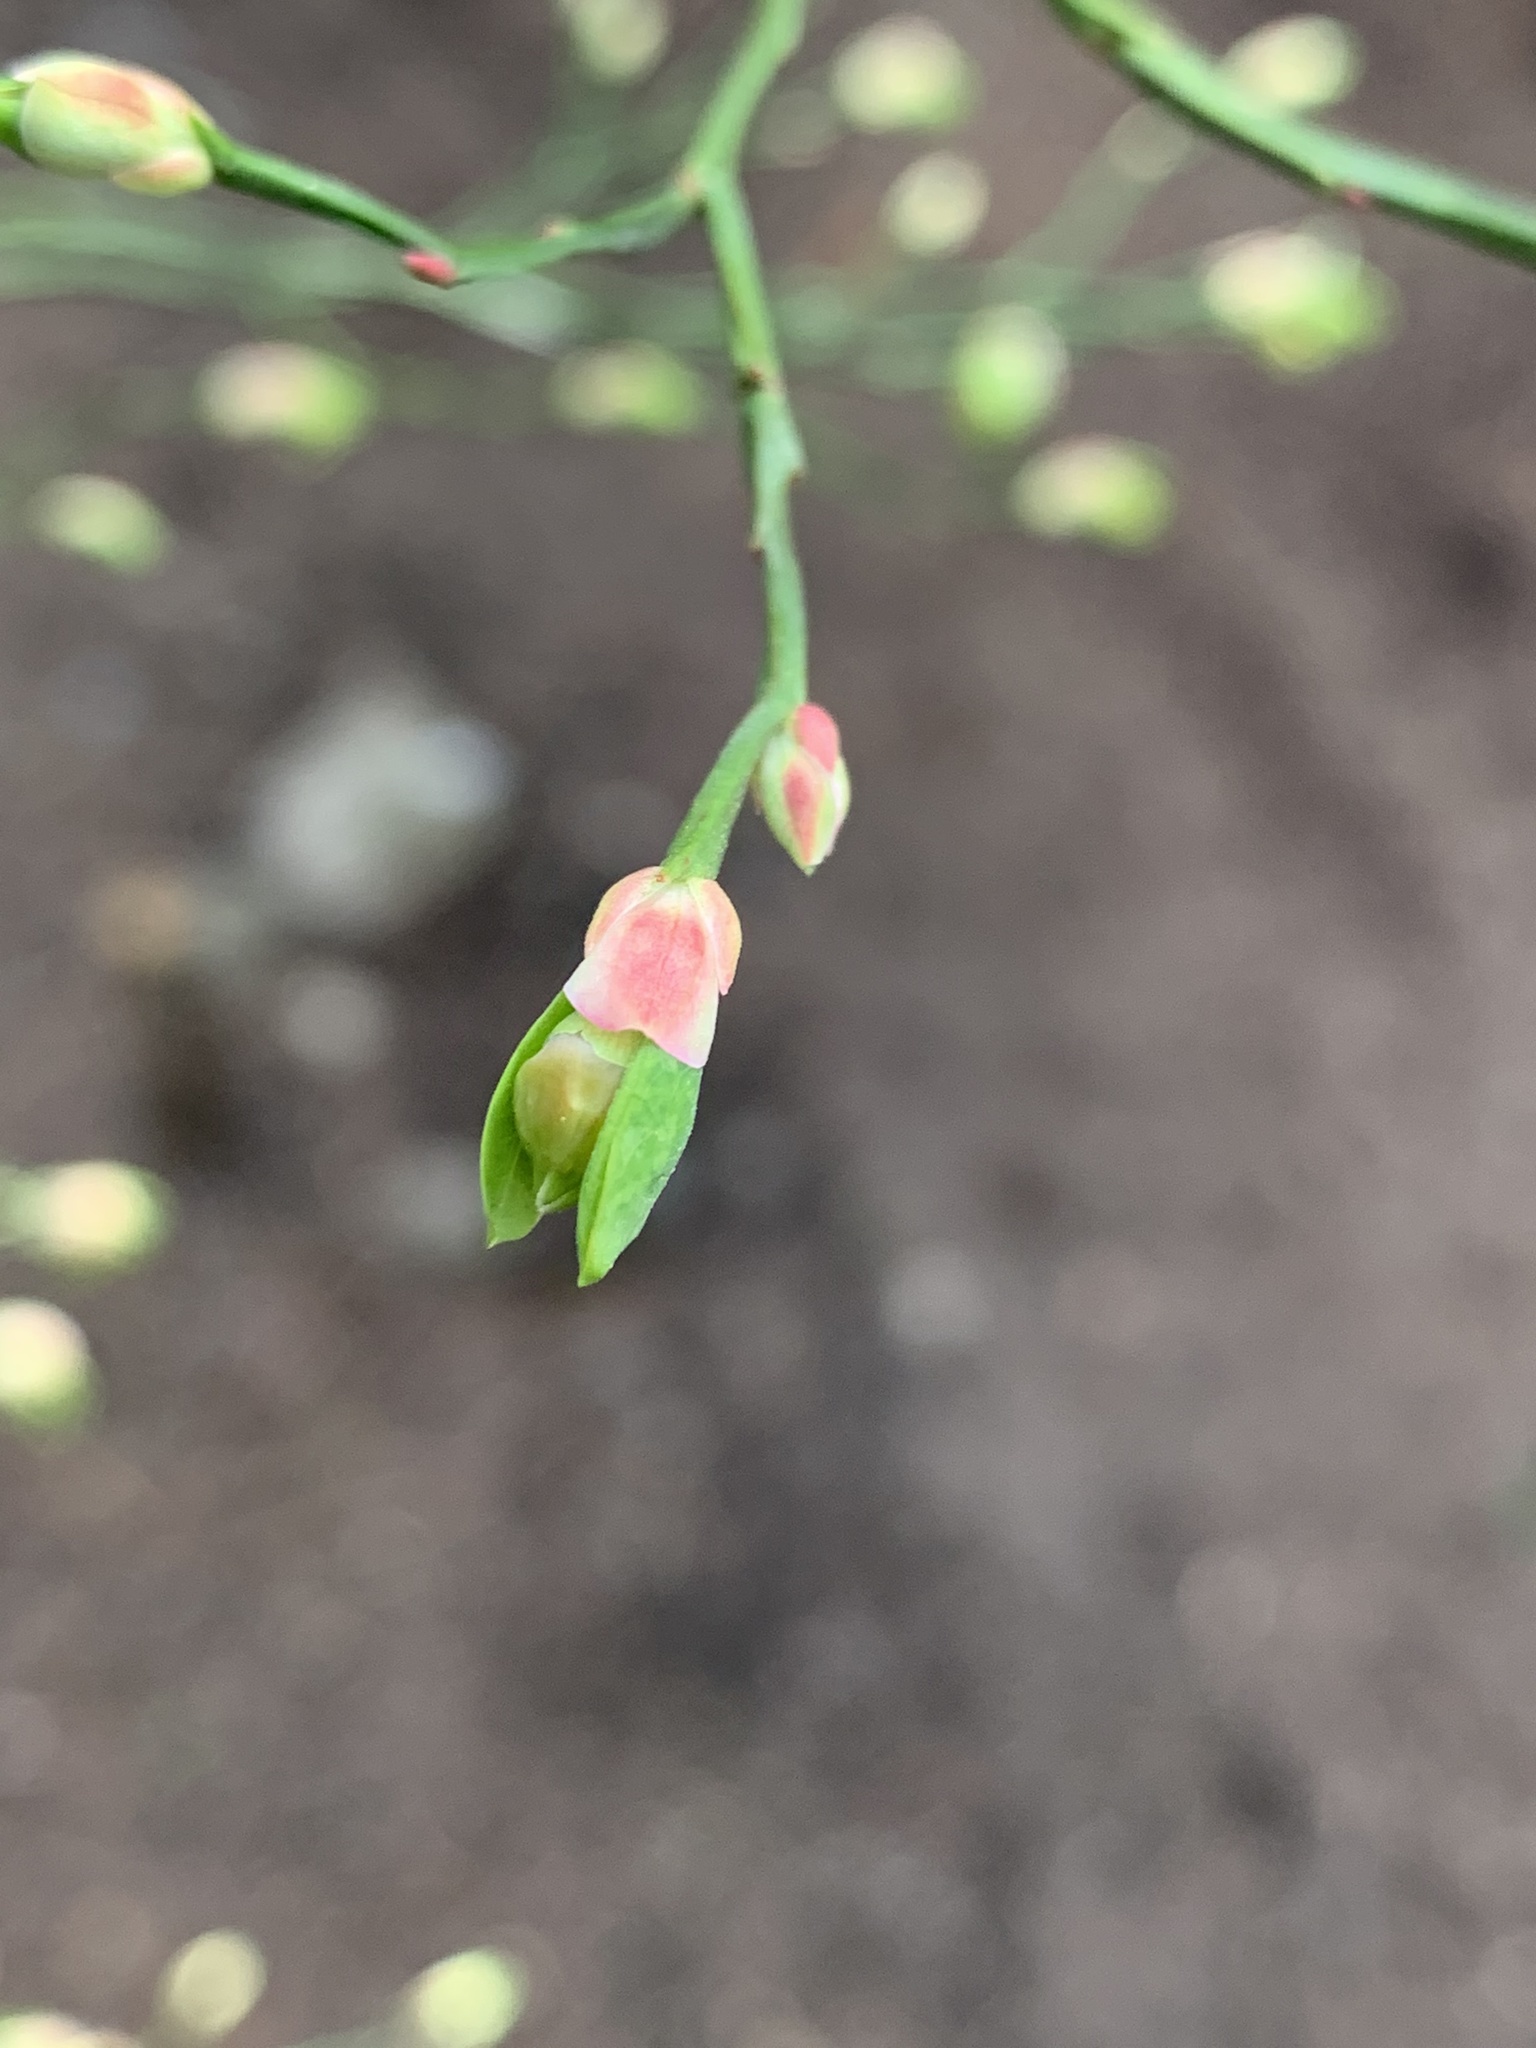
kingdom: Plantae
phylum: Tracheophyta
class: Magnoliopsida
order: Ericales
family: Ericaceae
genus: Vaccinium
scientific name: Vaccinium parvifolium
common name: Red-huckleberry
